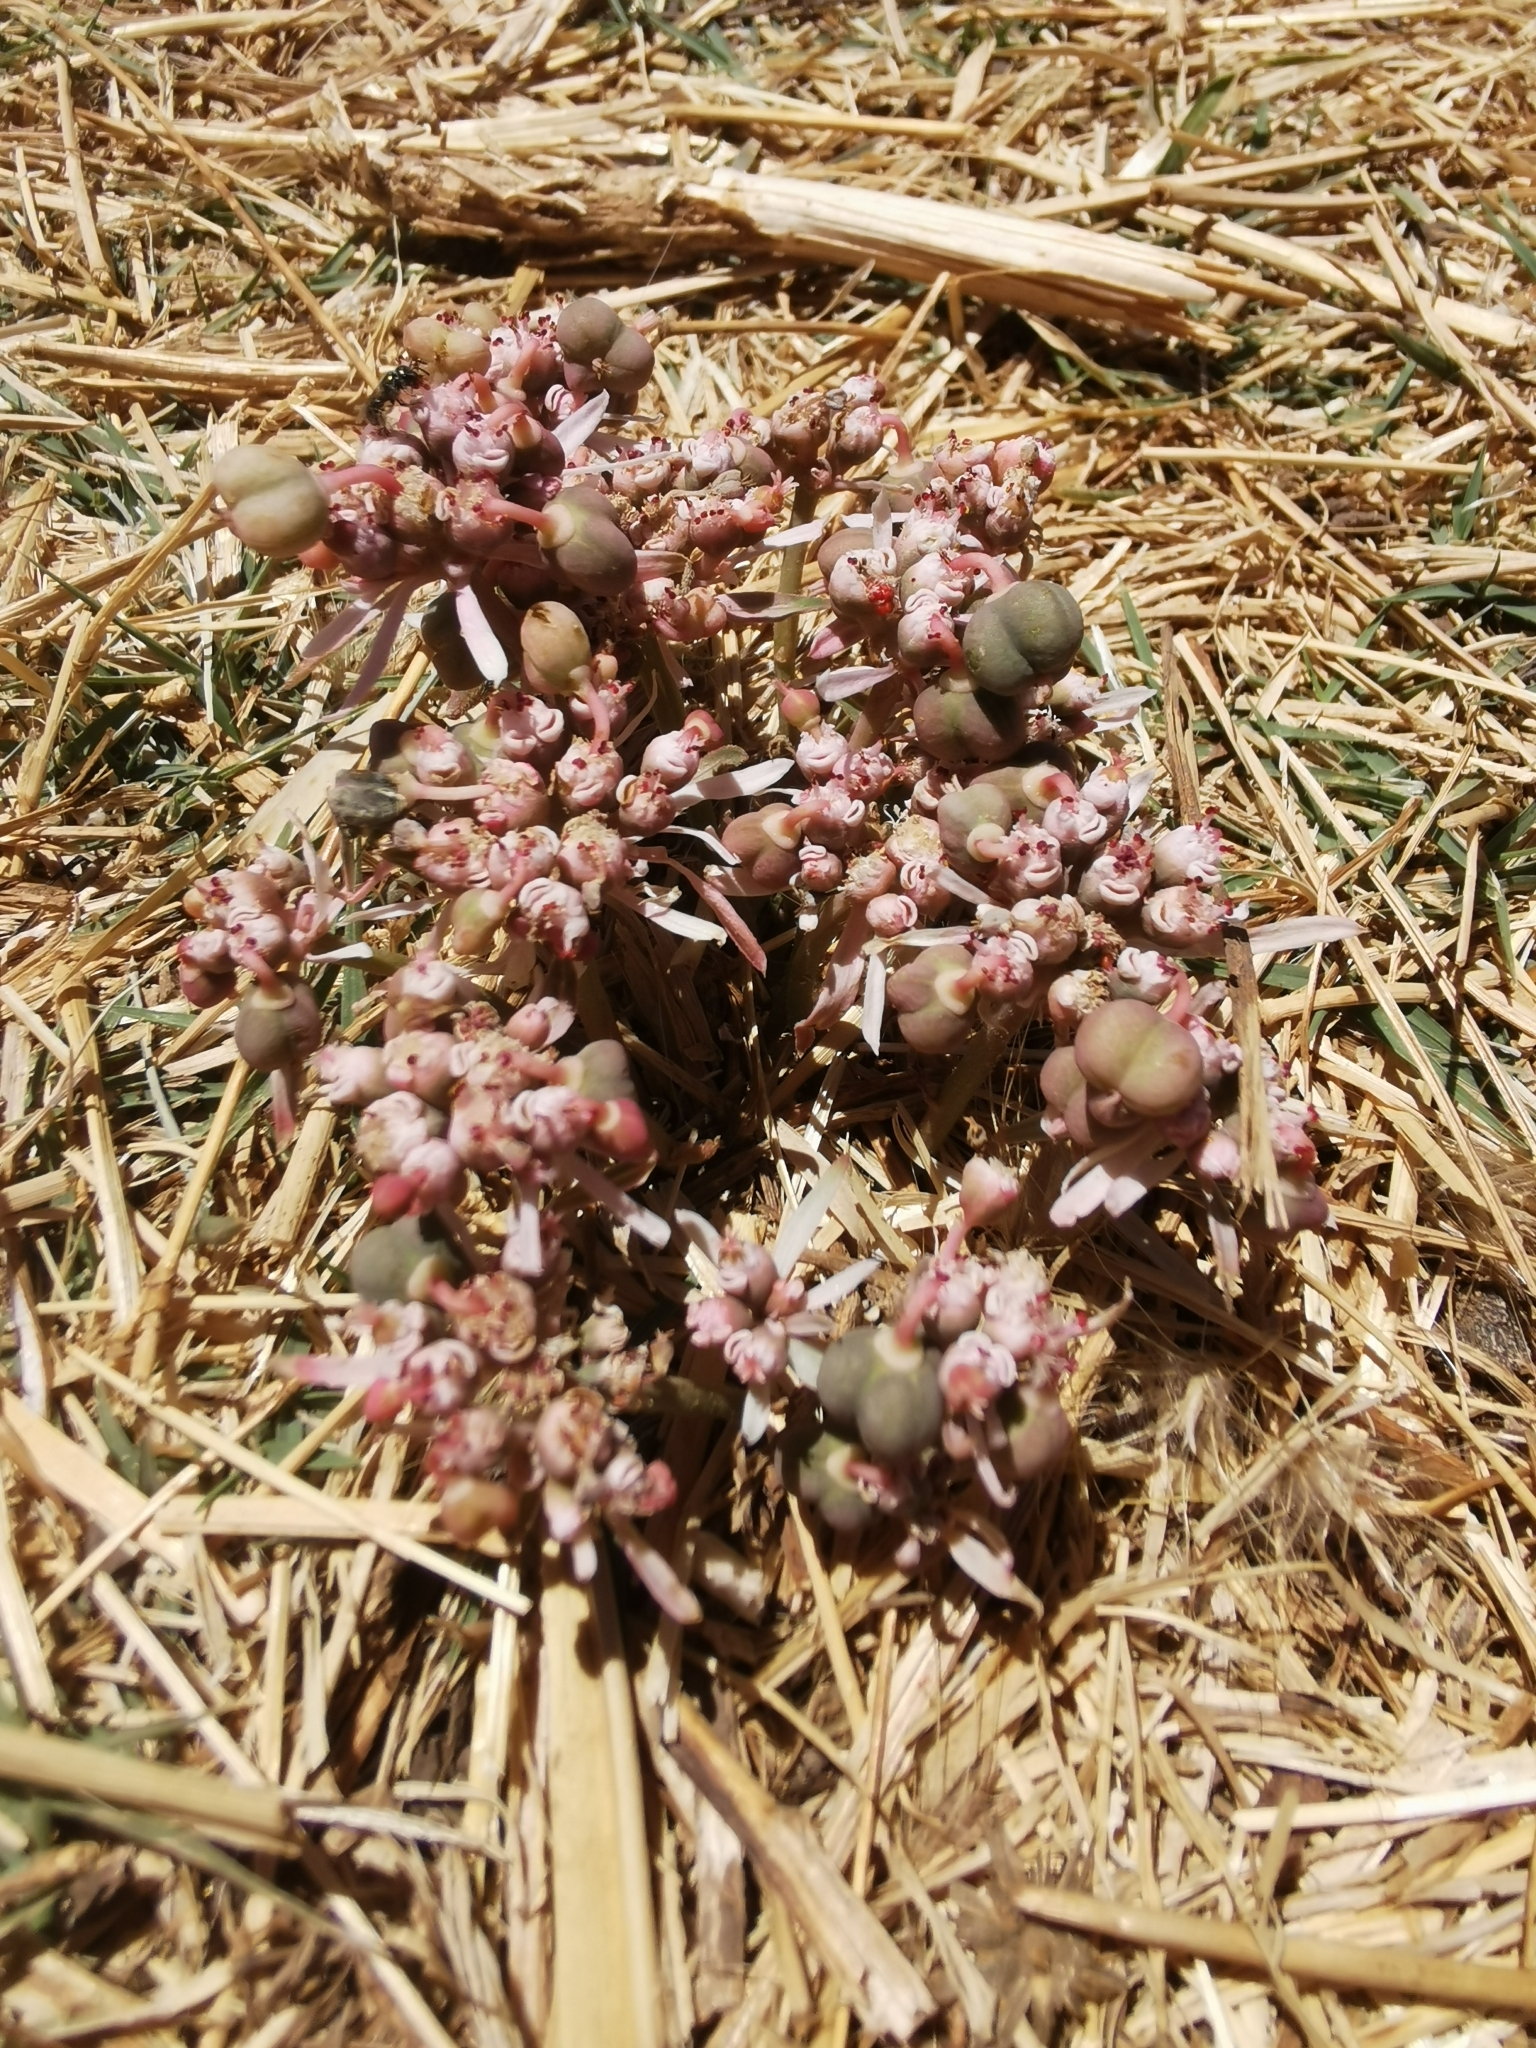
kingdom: Plantae
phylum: Tracheophyta
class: Magnoliopsida
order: Malpighiales
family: Euphorbiaceae
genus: Euphorbia
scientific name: Euphorbia radians
